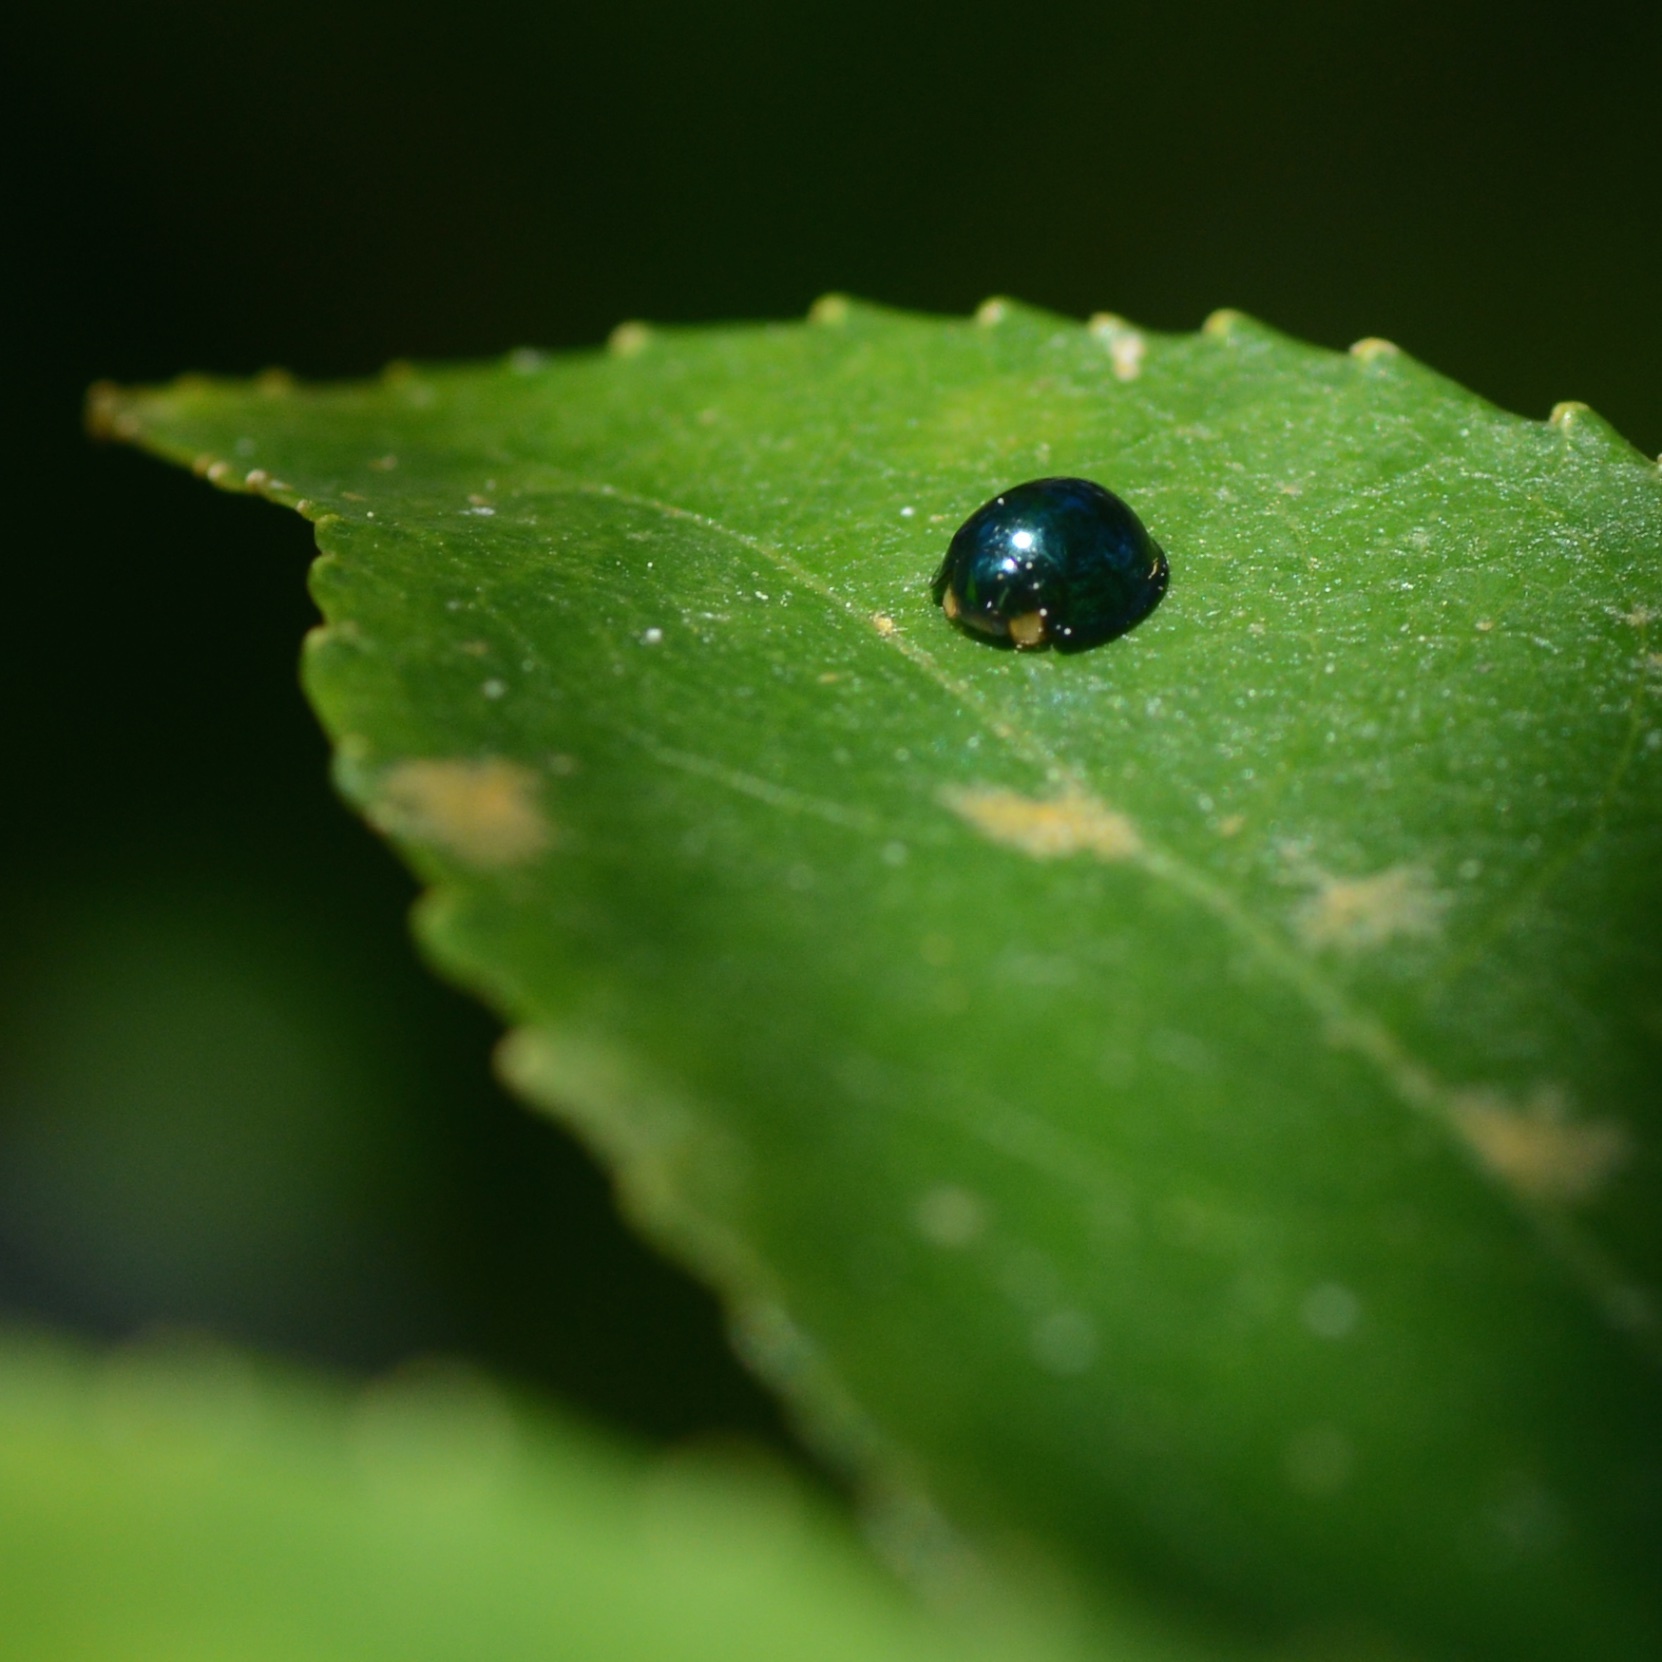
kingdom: Animalia
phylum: Arthropoda
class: Insecta
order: Coleoptera
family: Coccinellidae
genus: Halmus
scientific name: Halmus chalybeus
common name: Steel blue ladybird beetle
